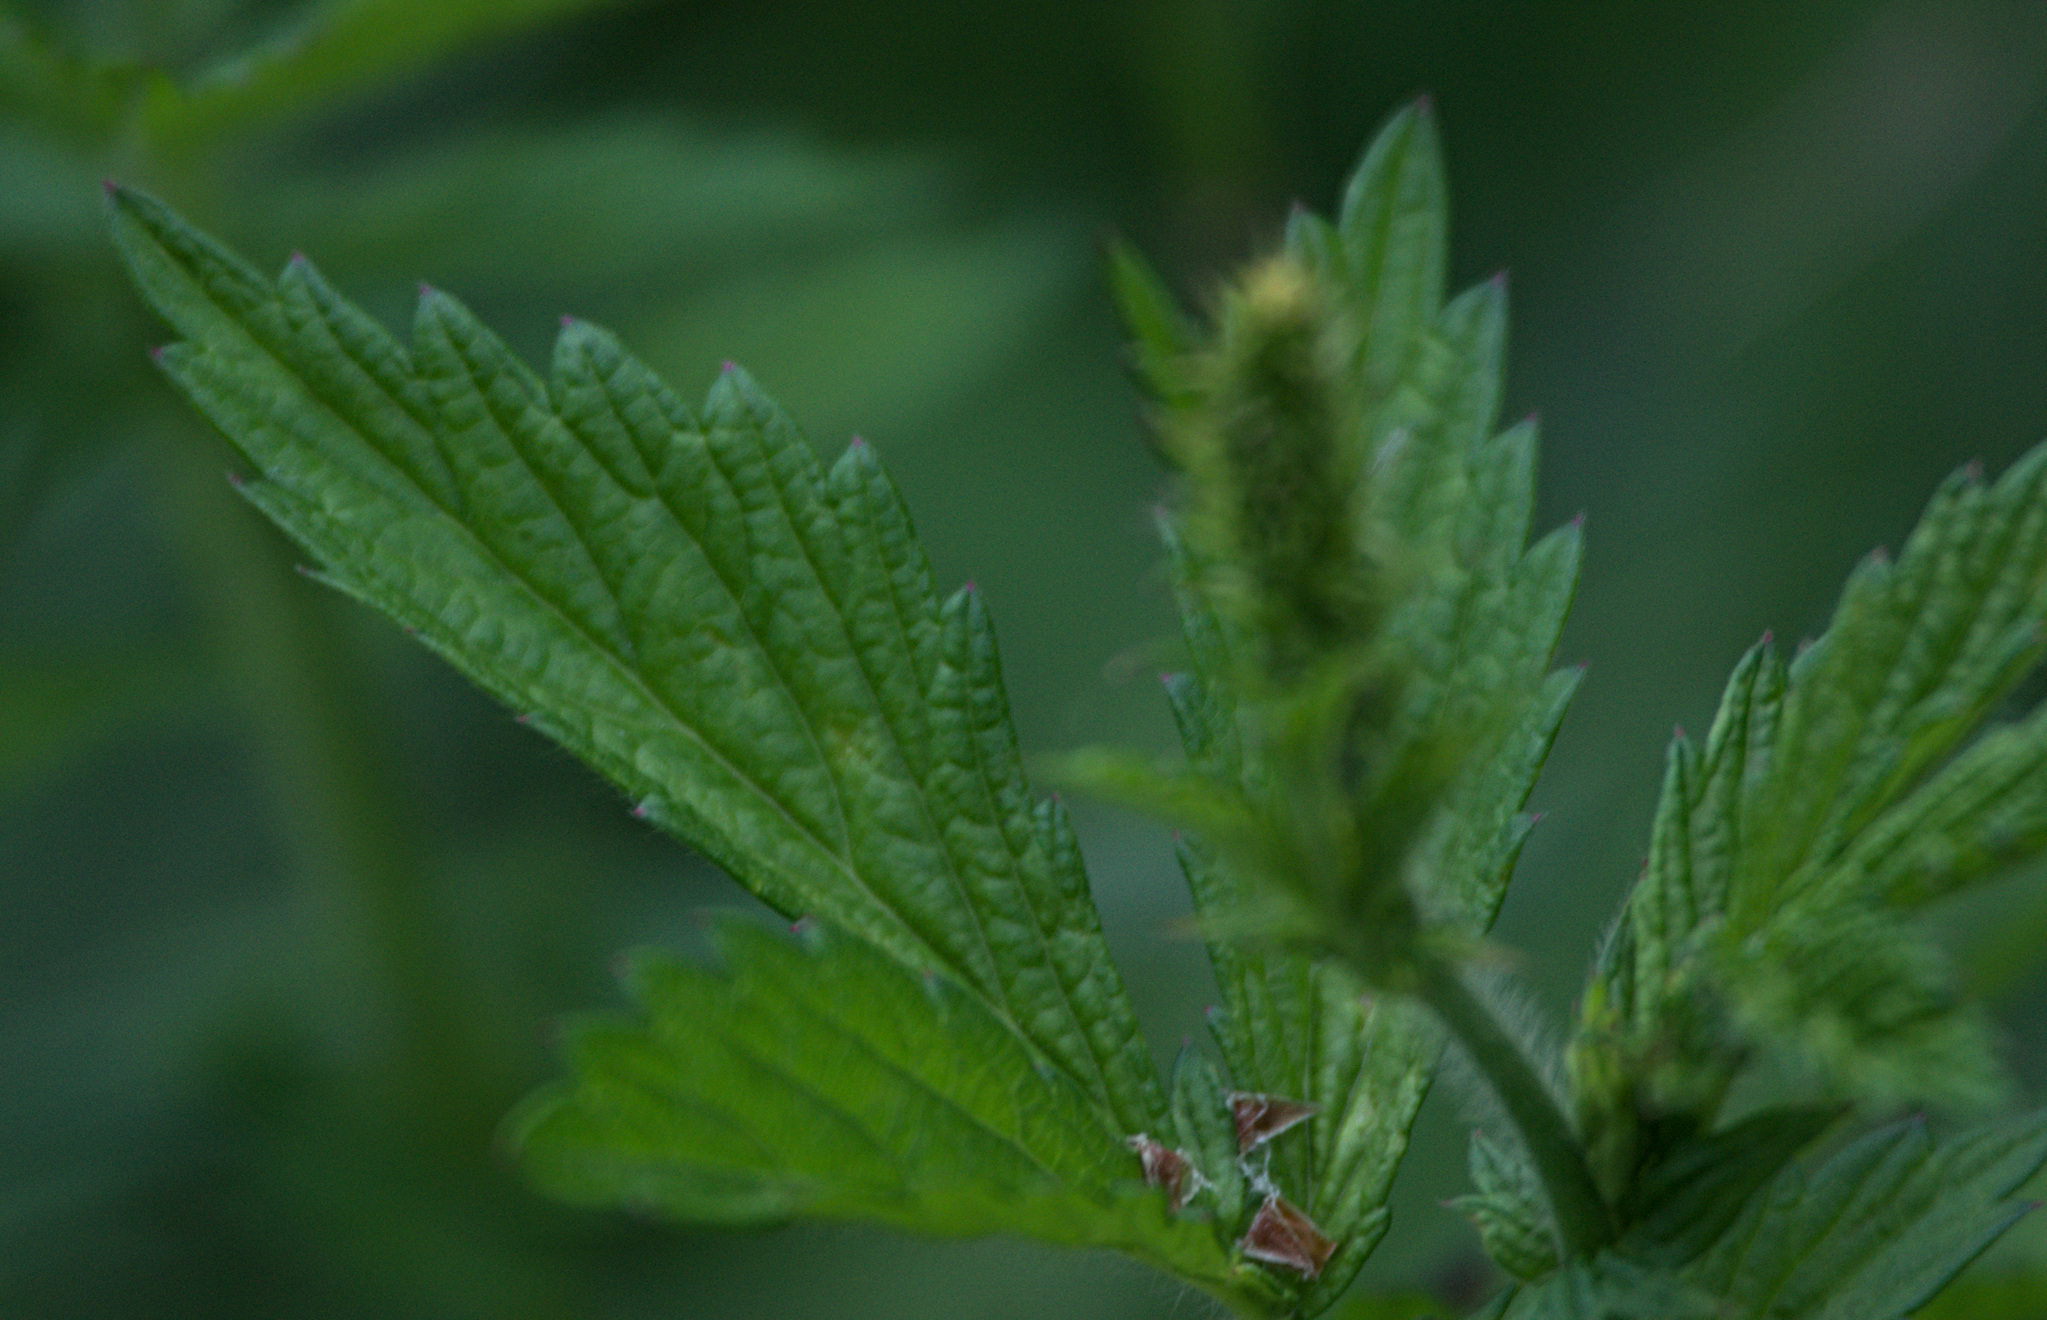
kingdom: Plantae
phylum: Tracheophyta
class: Magnoliopsida
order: Rosales
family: Rosaceae
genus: Agrimonia
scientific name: Agrimonia pilosa
